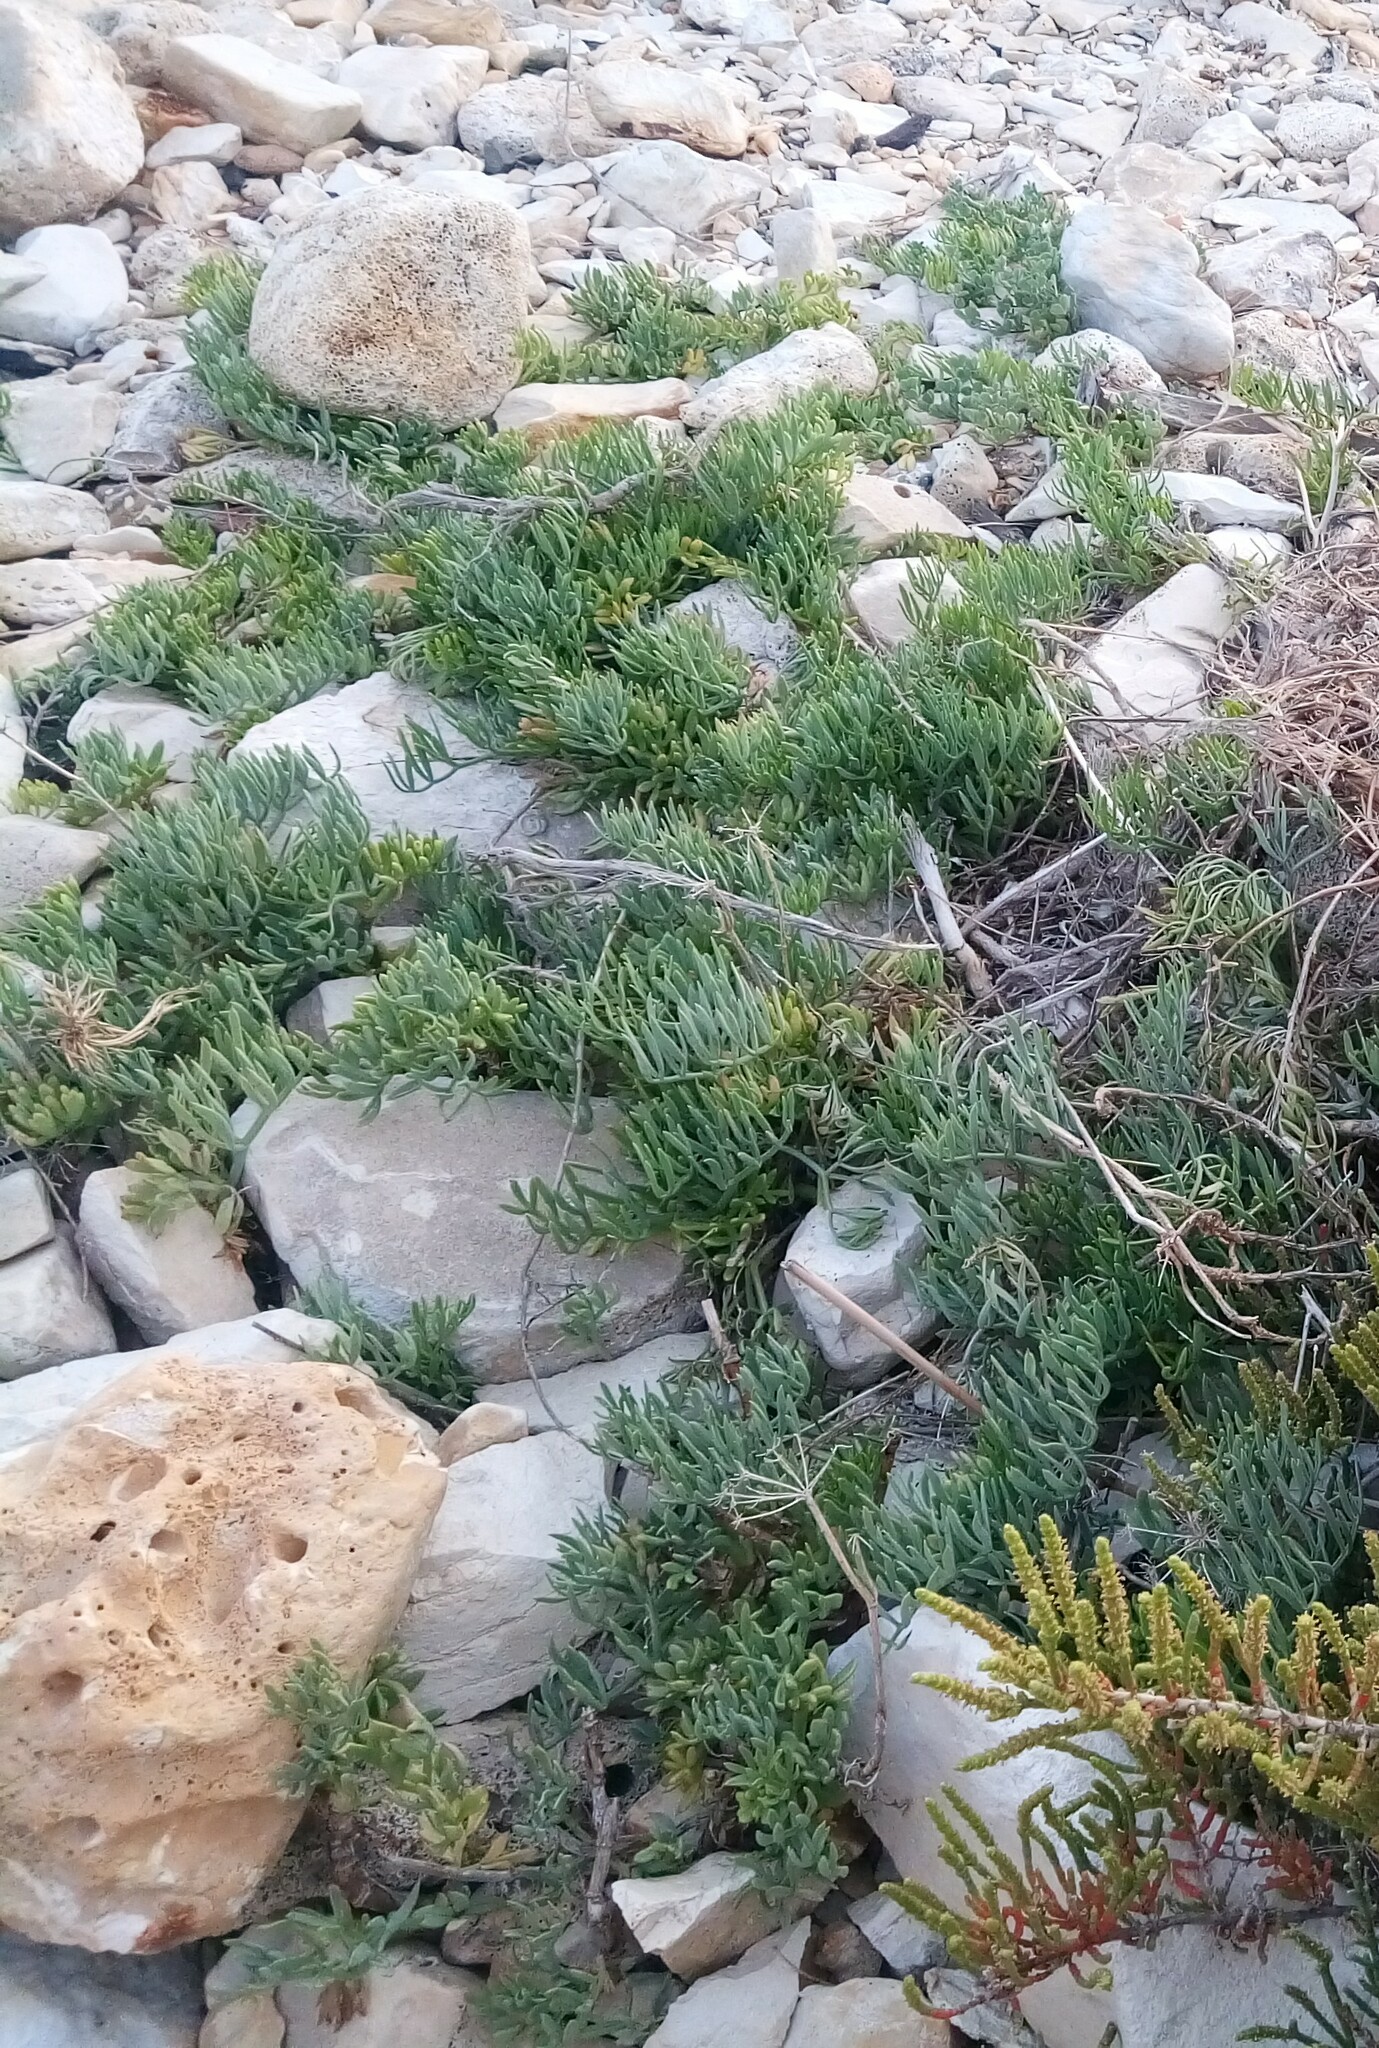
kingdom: Plantae
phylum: Tracheophyta
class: Magnoliopsida
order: Apiales
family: Apiaceae
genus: Crithmum
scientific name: Crithmum maritimum
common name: Rock samphire
